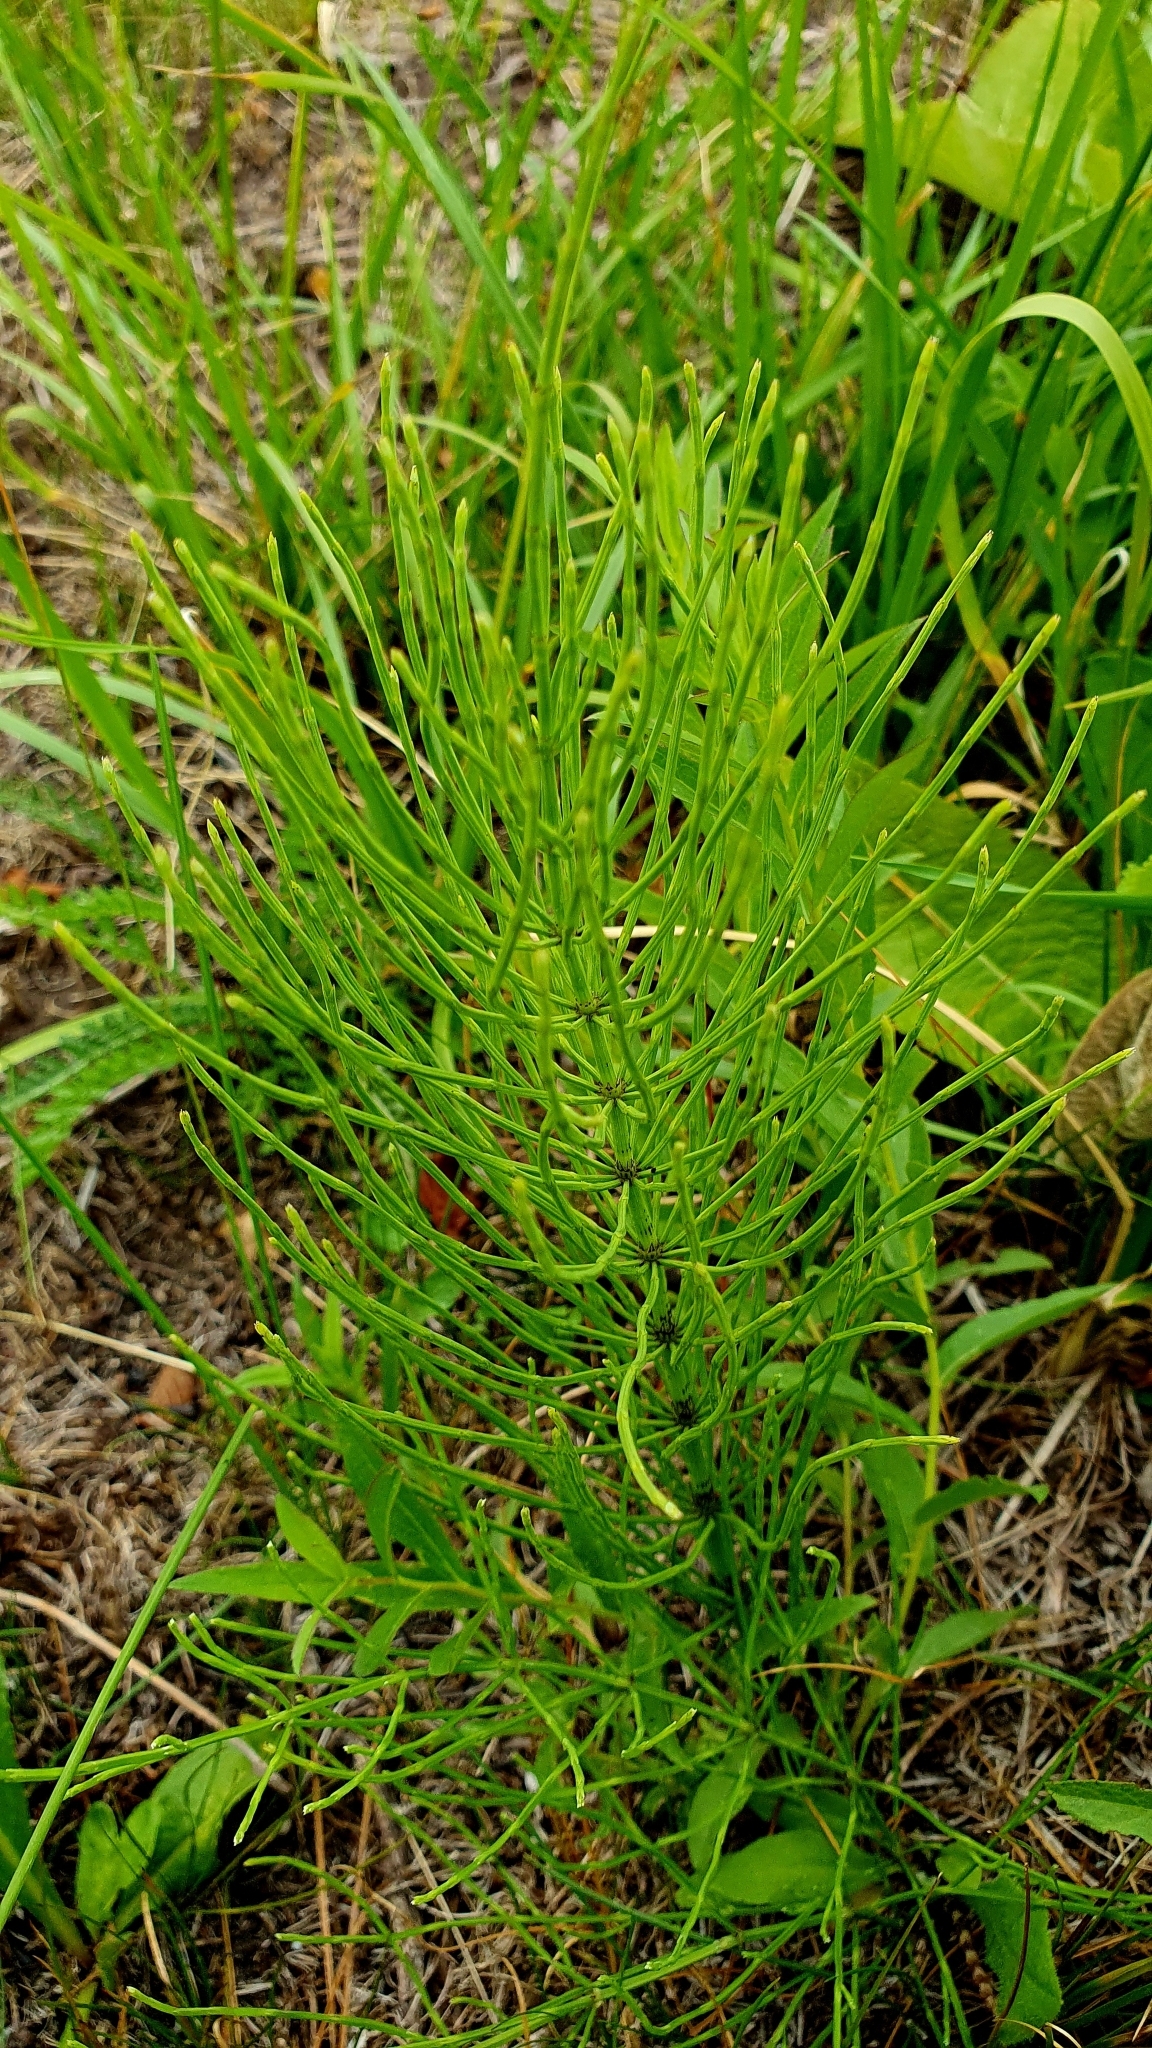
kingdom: Plantae
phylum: Tracheophyta
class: Polypodiopsida
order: Equisetales
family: Equisetaceae
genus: Equisetum
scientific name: Equisetum arvense
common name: Field horsetail
